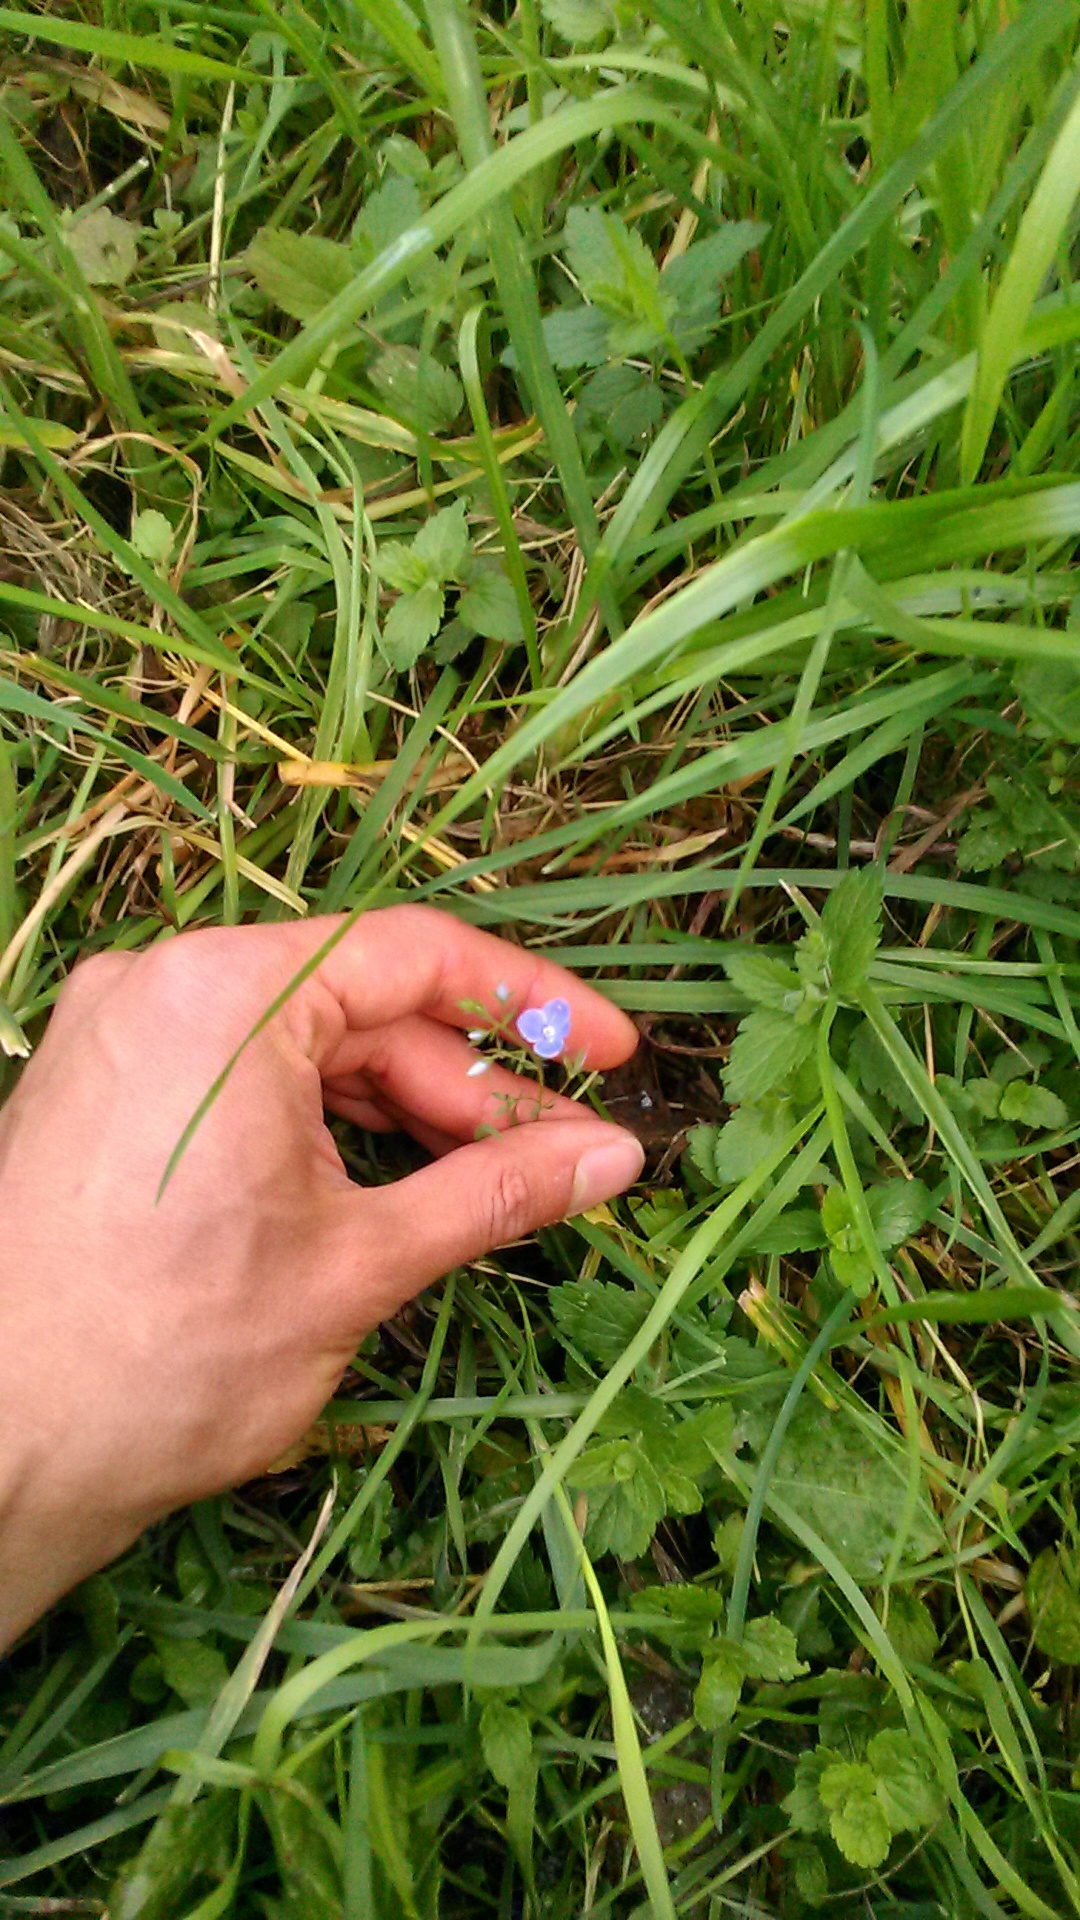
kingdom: Plantae
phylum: Tracheophyta
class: Magnoliopsida
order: Lamiales
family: Plantaginaceae
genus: Veronica
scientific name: Veronica chamaedrys
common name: Germander speedwell
